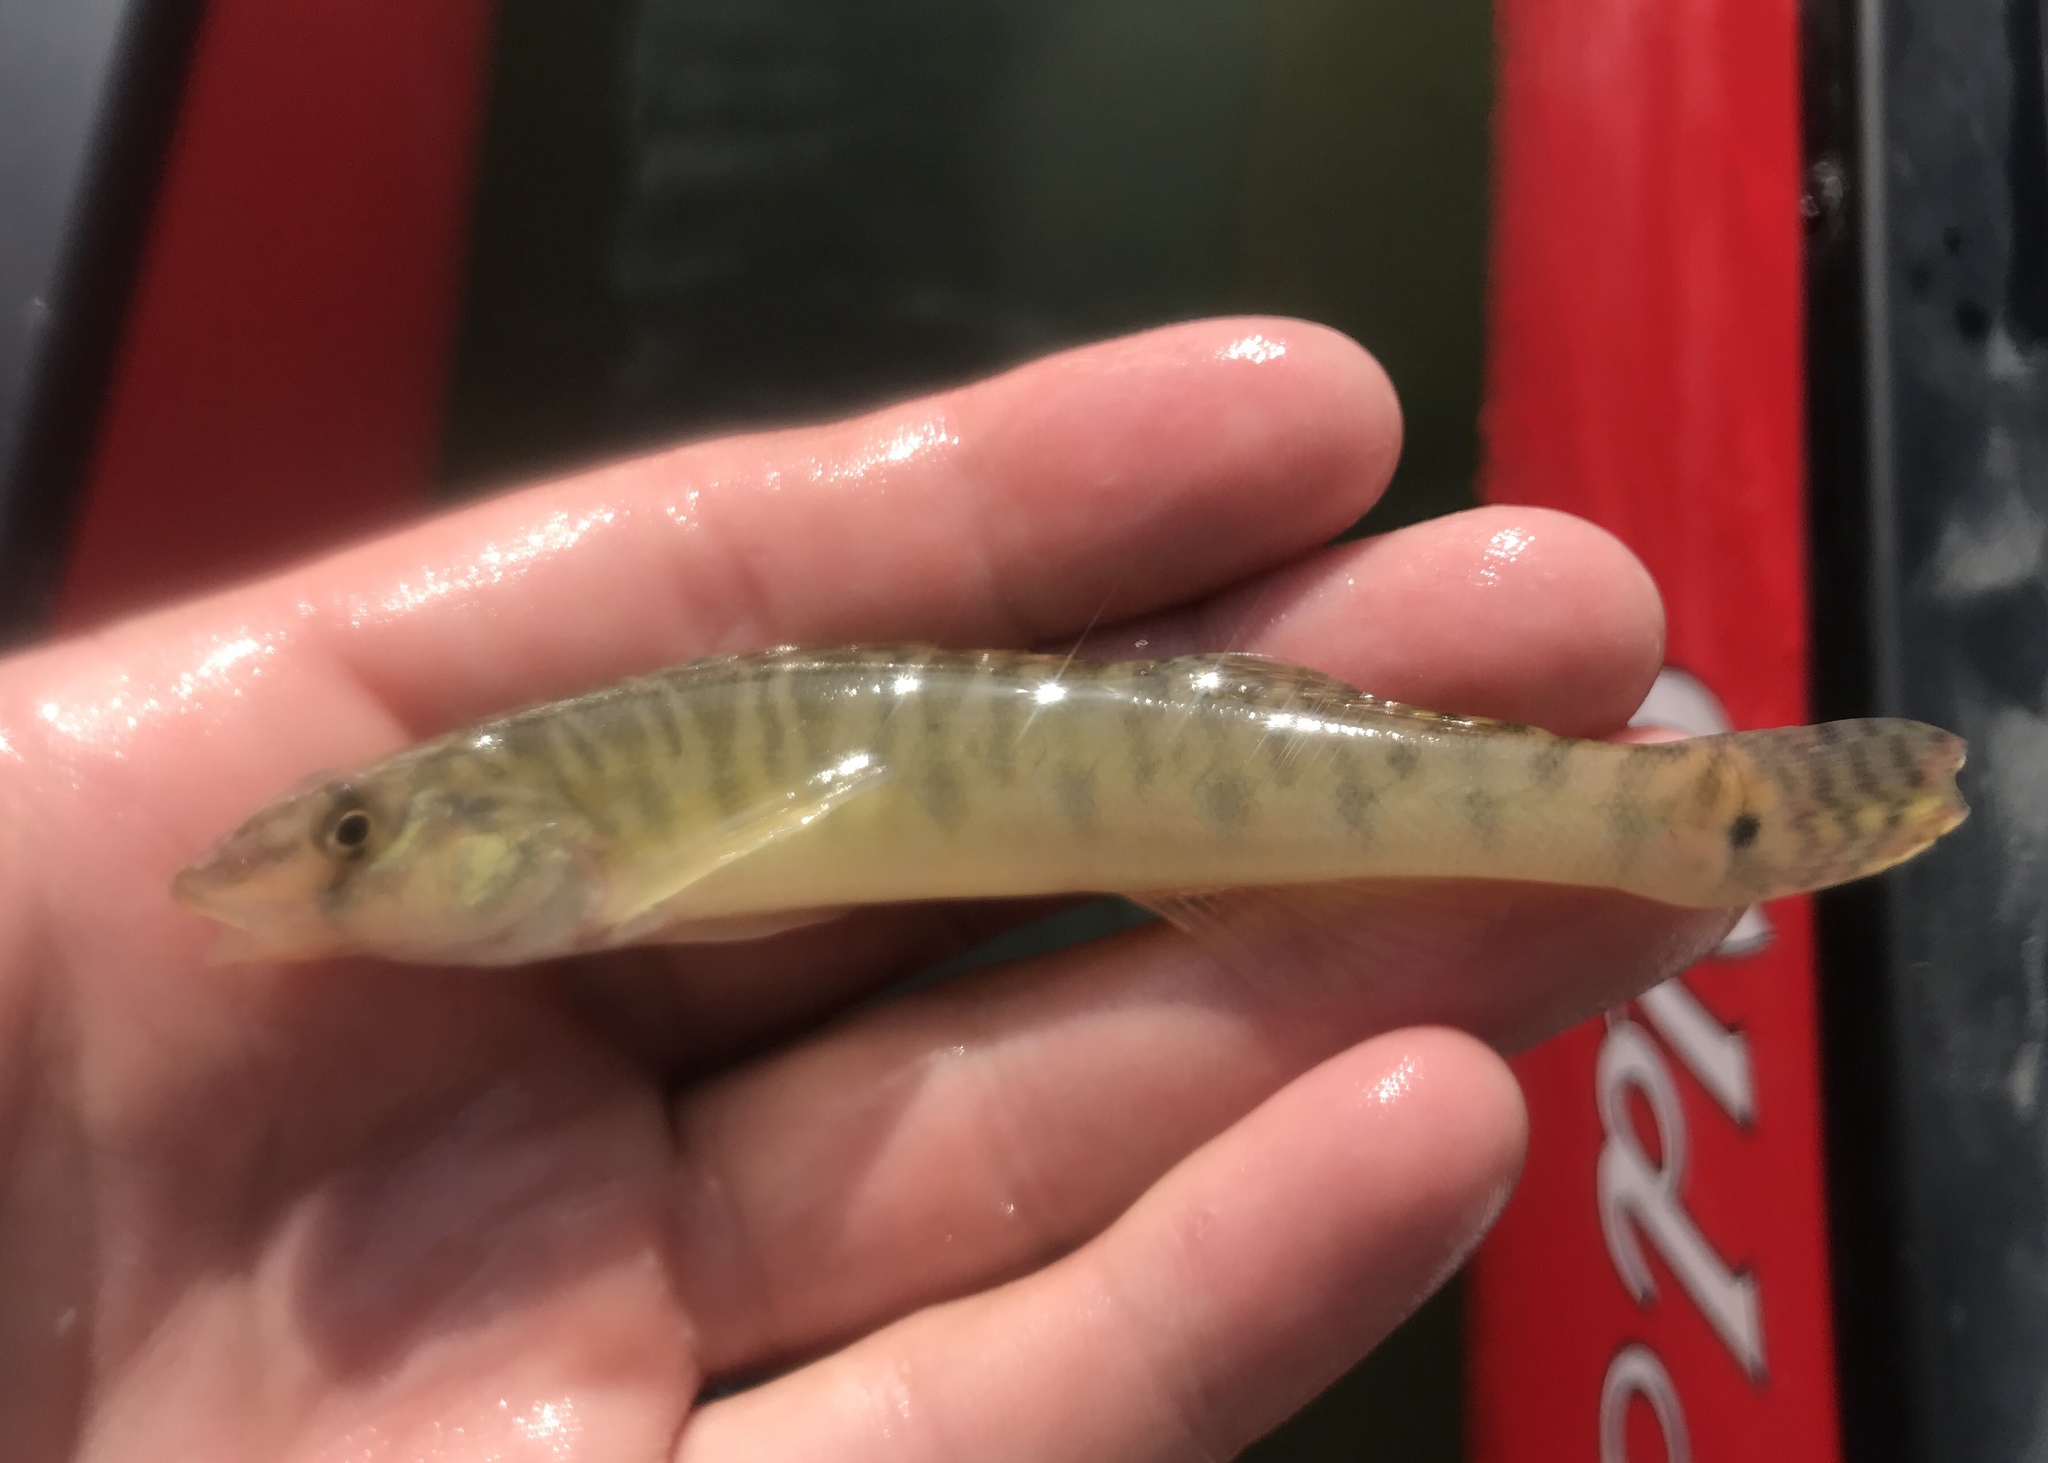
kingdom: Animalia
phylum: Chordata
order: Perciformes
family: Percidae
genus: Percina
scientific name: Percina carbonaria
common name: Texas logperch
